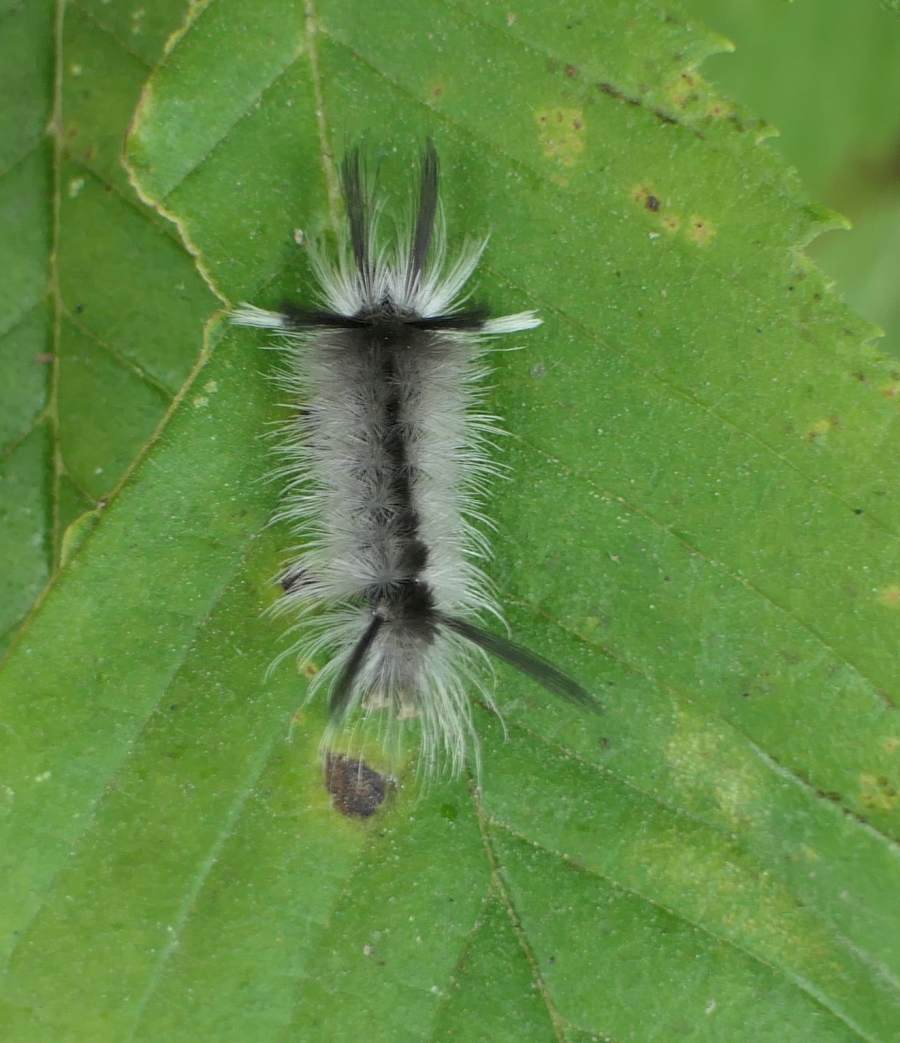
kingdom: Animalia
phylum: Arthropoda
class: Insecta
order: Lepidoptera
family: Erebidae
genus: Halysidota
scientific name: Halysidota tessellaris
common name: Banded tussock moth
